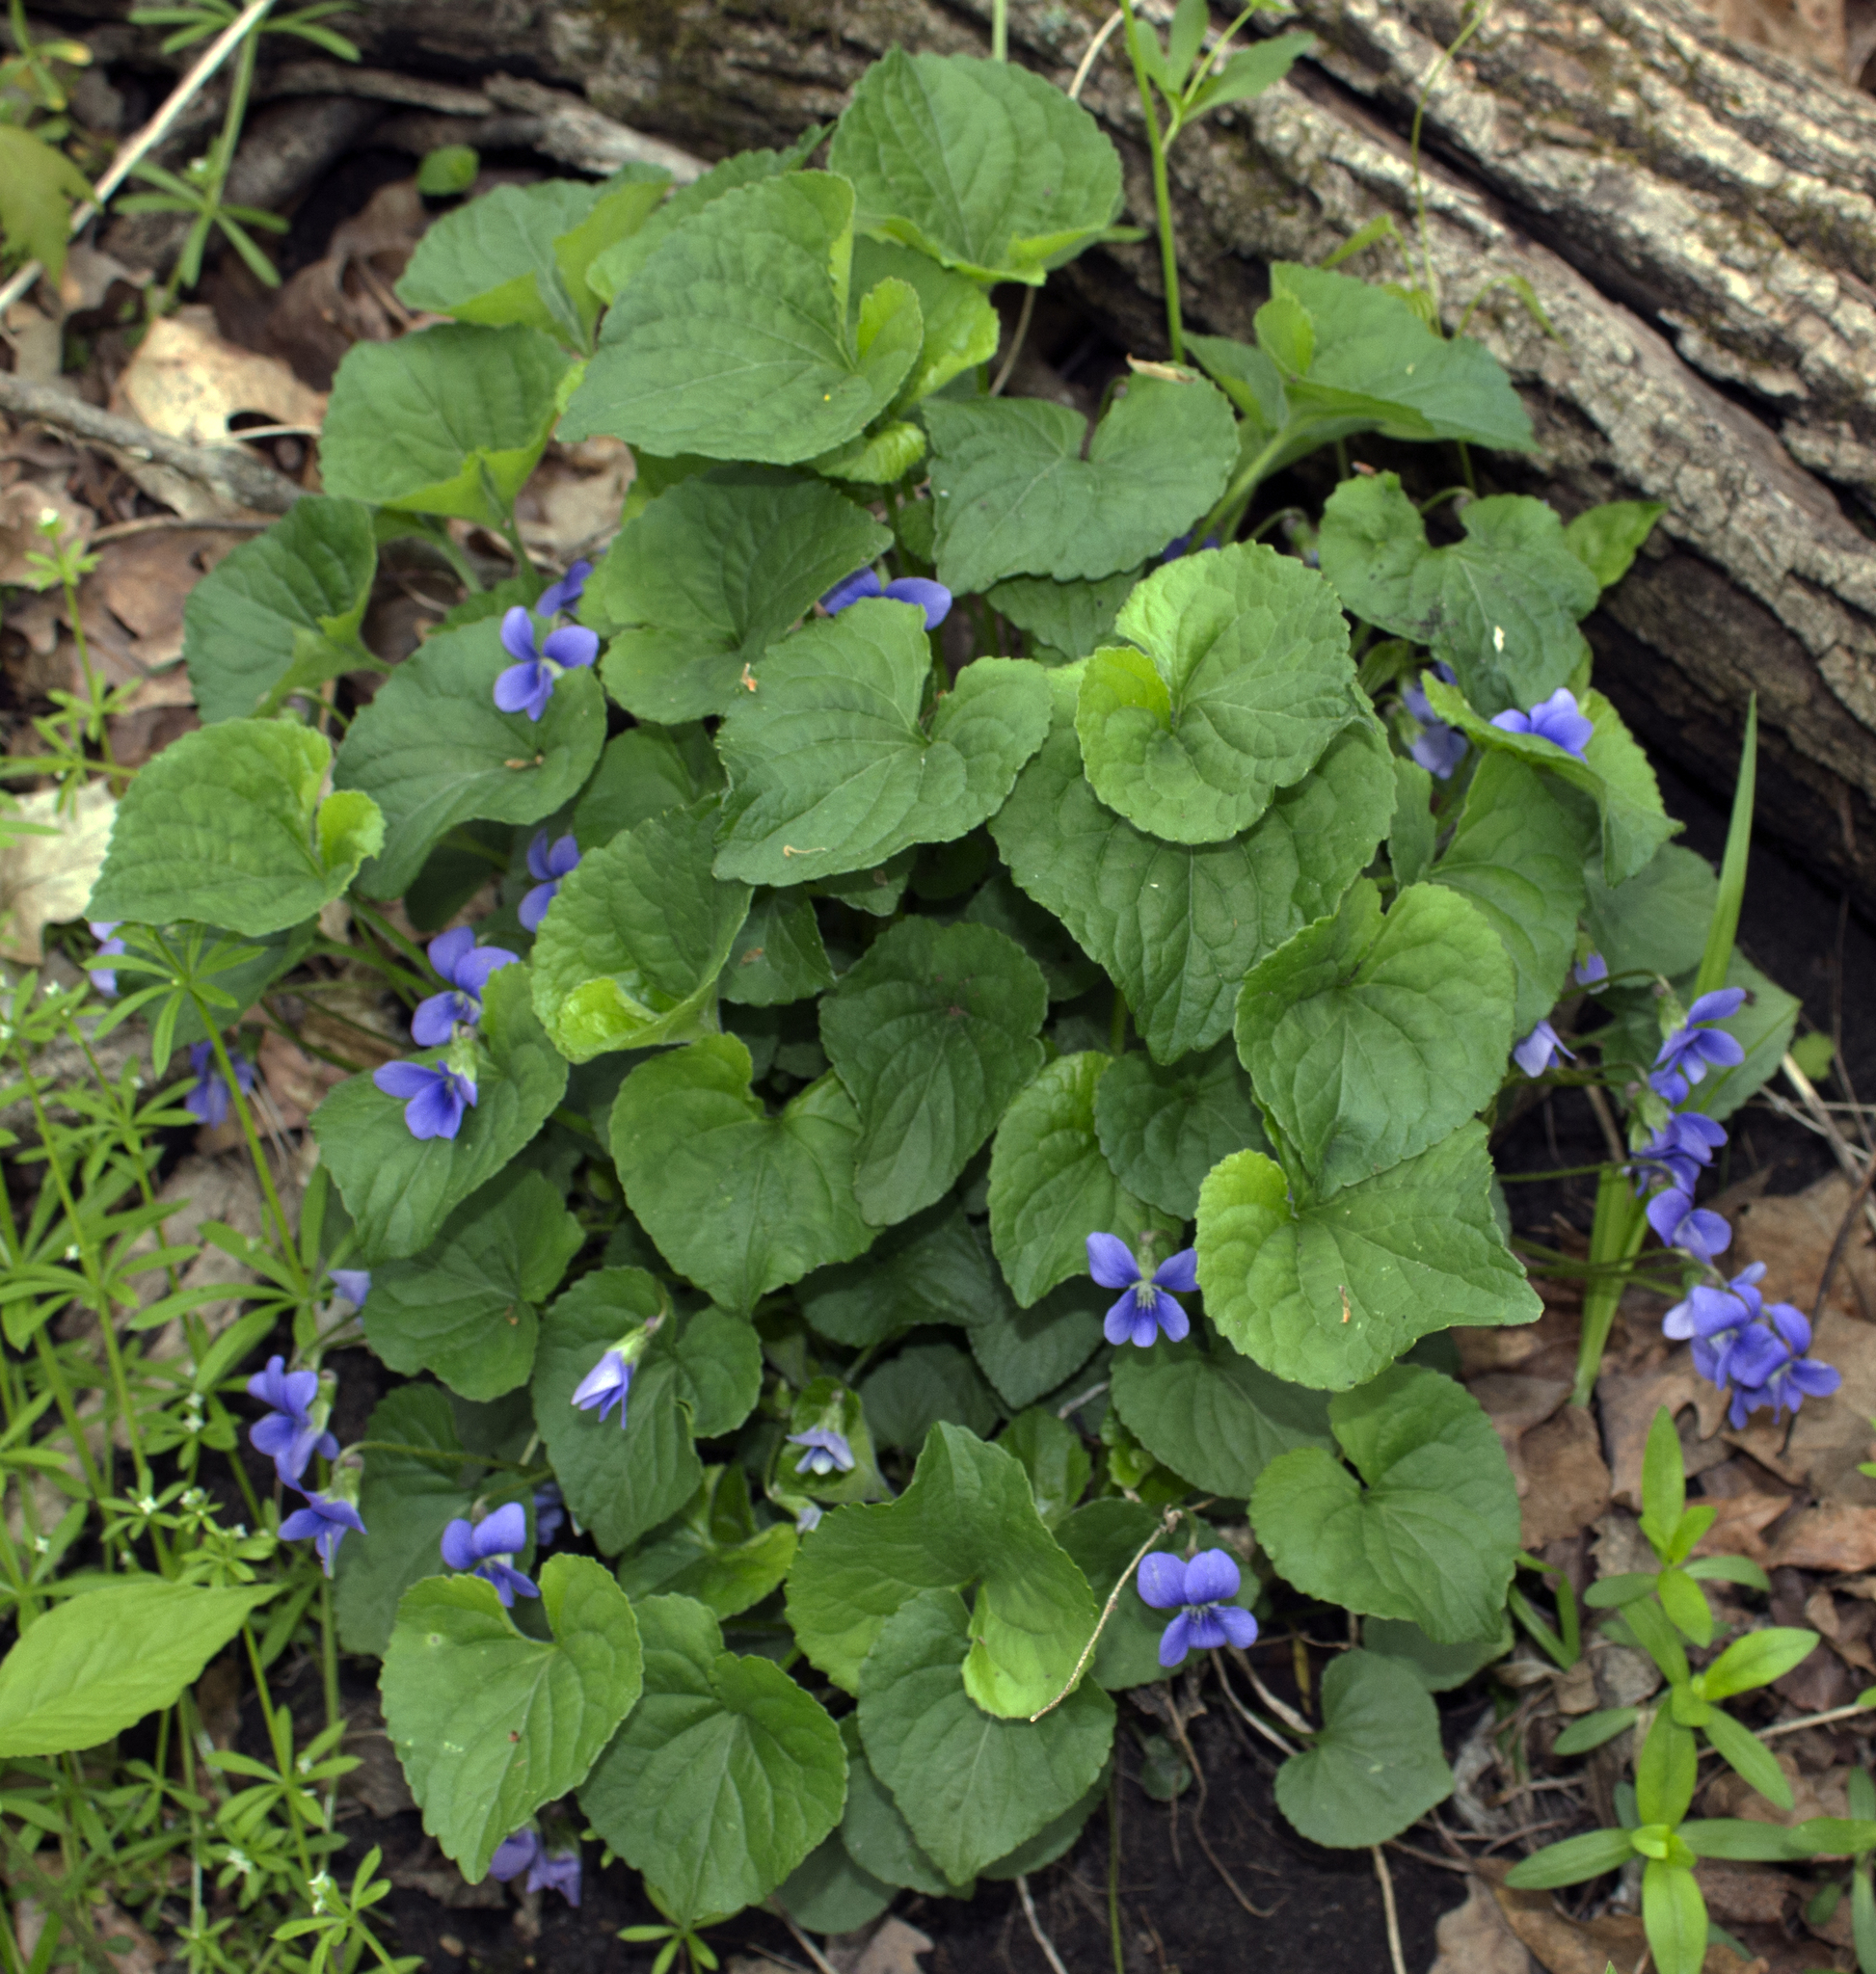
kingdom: Plantae
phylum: Tracheophyta
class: Magnoliopsida
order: Malpighiales
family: Violaceae
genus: Viola
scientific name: Viola sororia
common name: Dooryard violet
